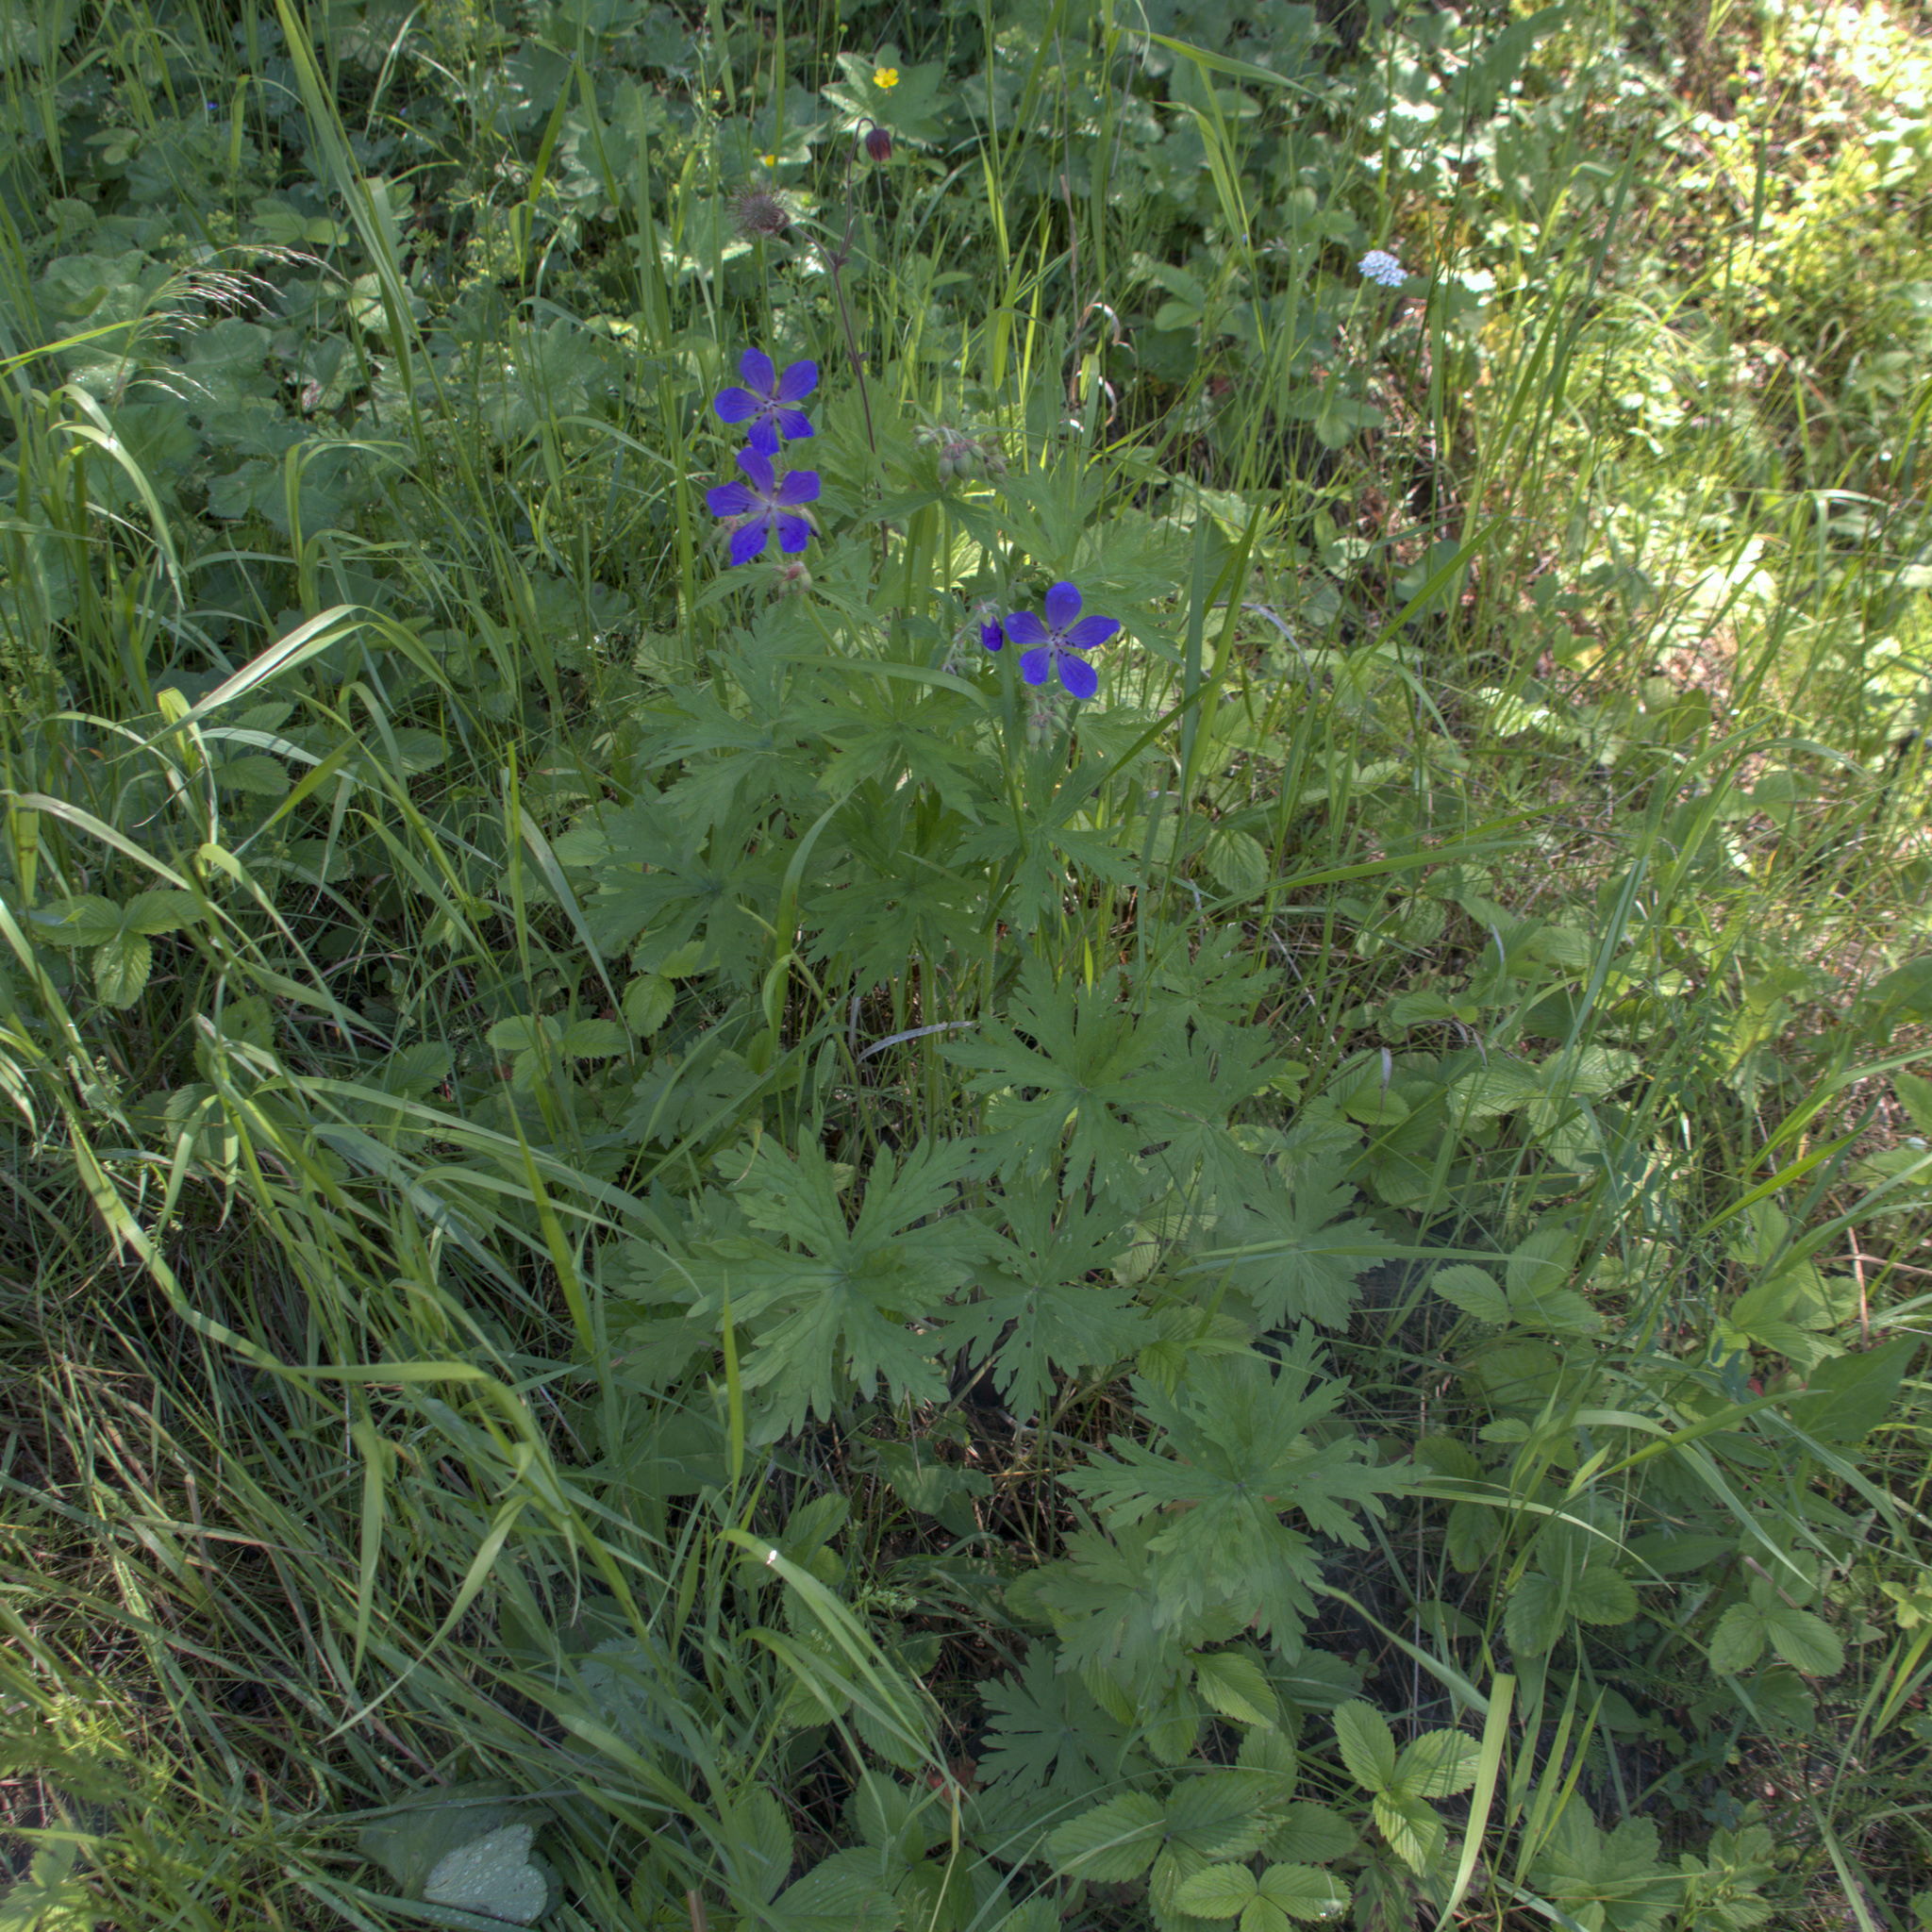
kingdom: Plantae
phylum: Tracheophyta
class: Magnoliopsida
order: Geraniales
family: Geraniaceae
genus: Geranium
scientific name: Geranium pratense
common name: Meadow crane's-bill
